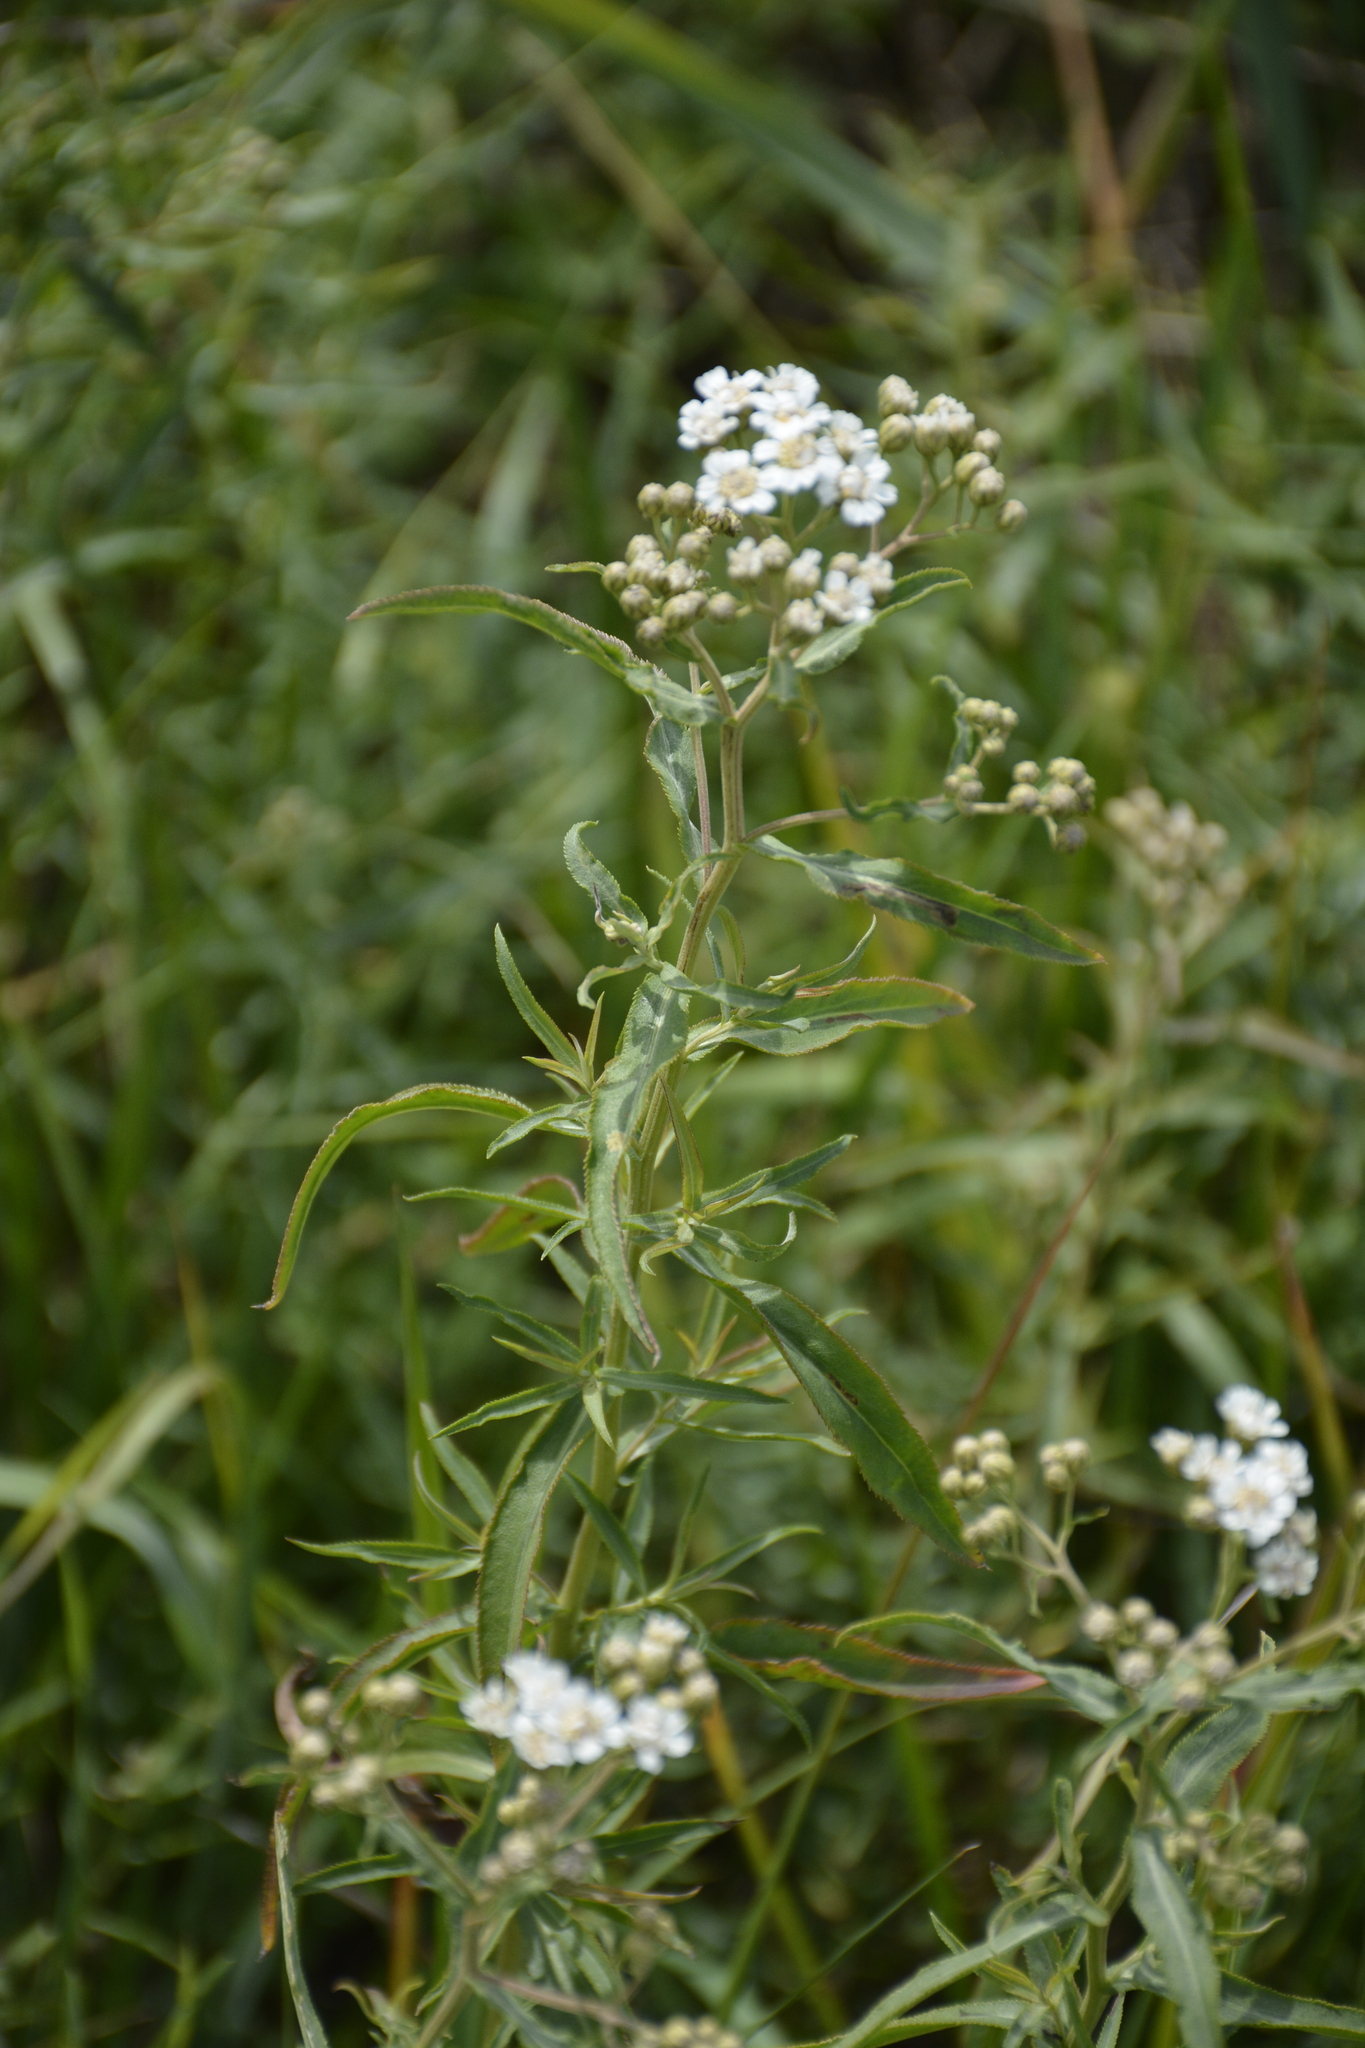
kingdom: Plantae
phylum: Tracheophyta
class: Magnoliopsida
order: Asterales
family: Asteraceae
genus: Achillea
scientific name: Achillea salicifolia
